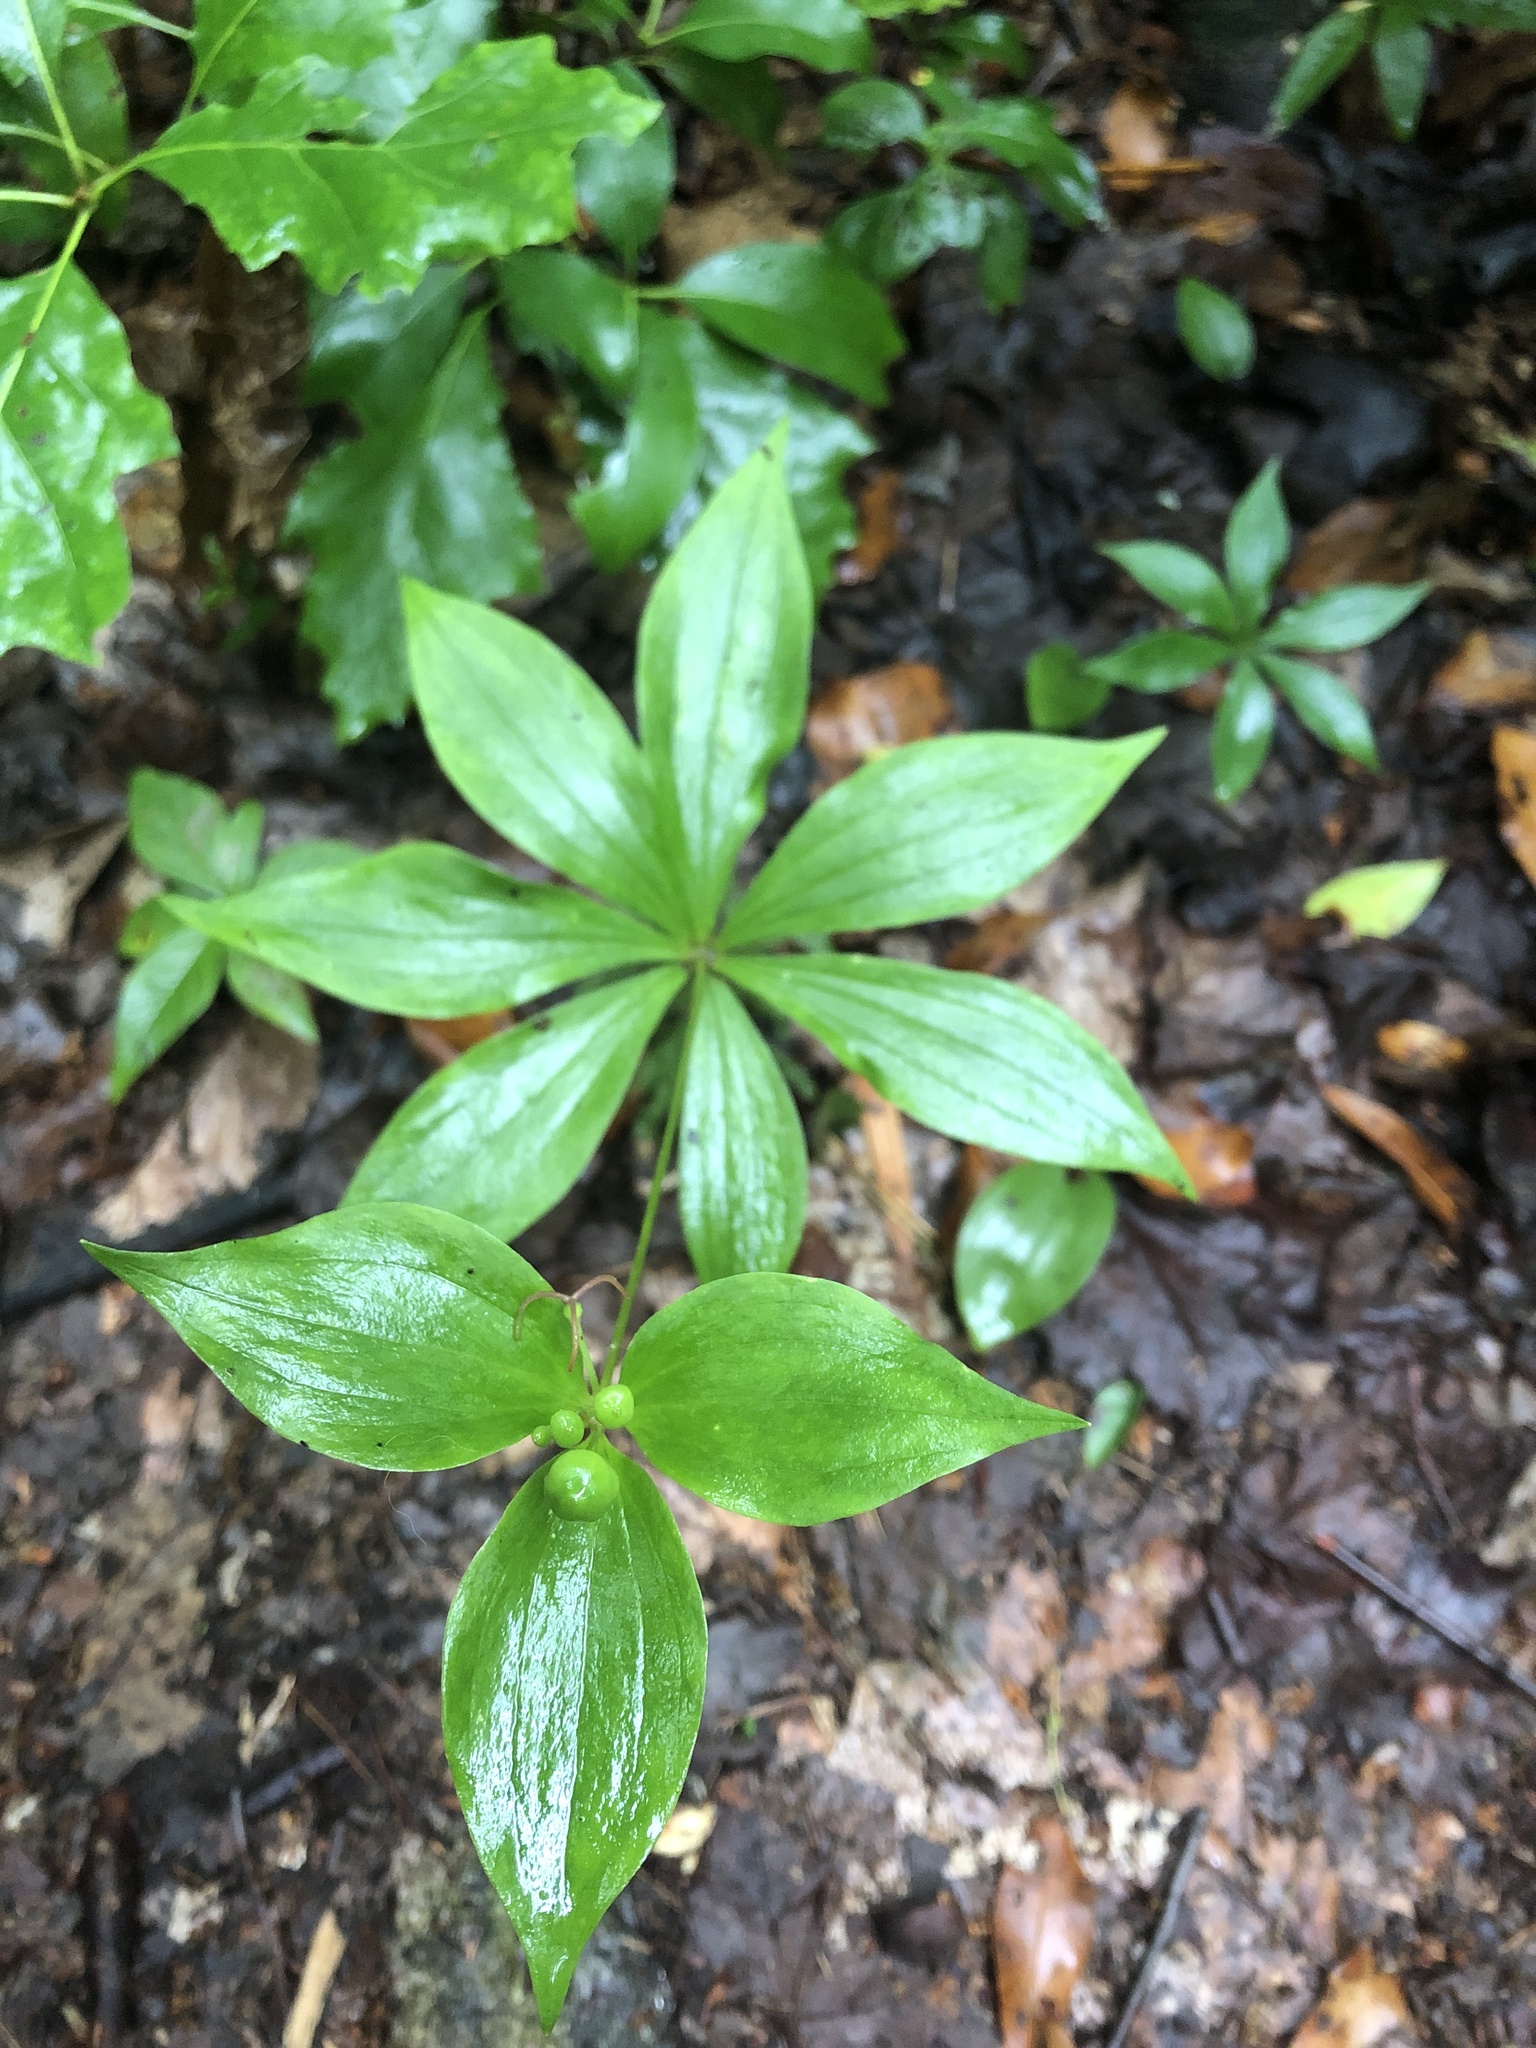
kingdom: Plantae
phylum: Tracheophyta
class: Liliopsida
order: Liliales
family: Liliaceae
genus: Medeola
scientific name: Medeola virginiana
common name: Indian cucumber-root
